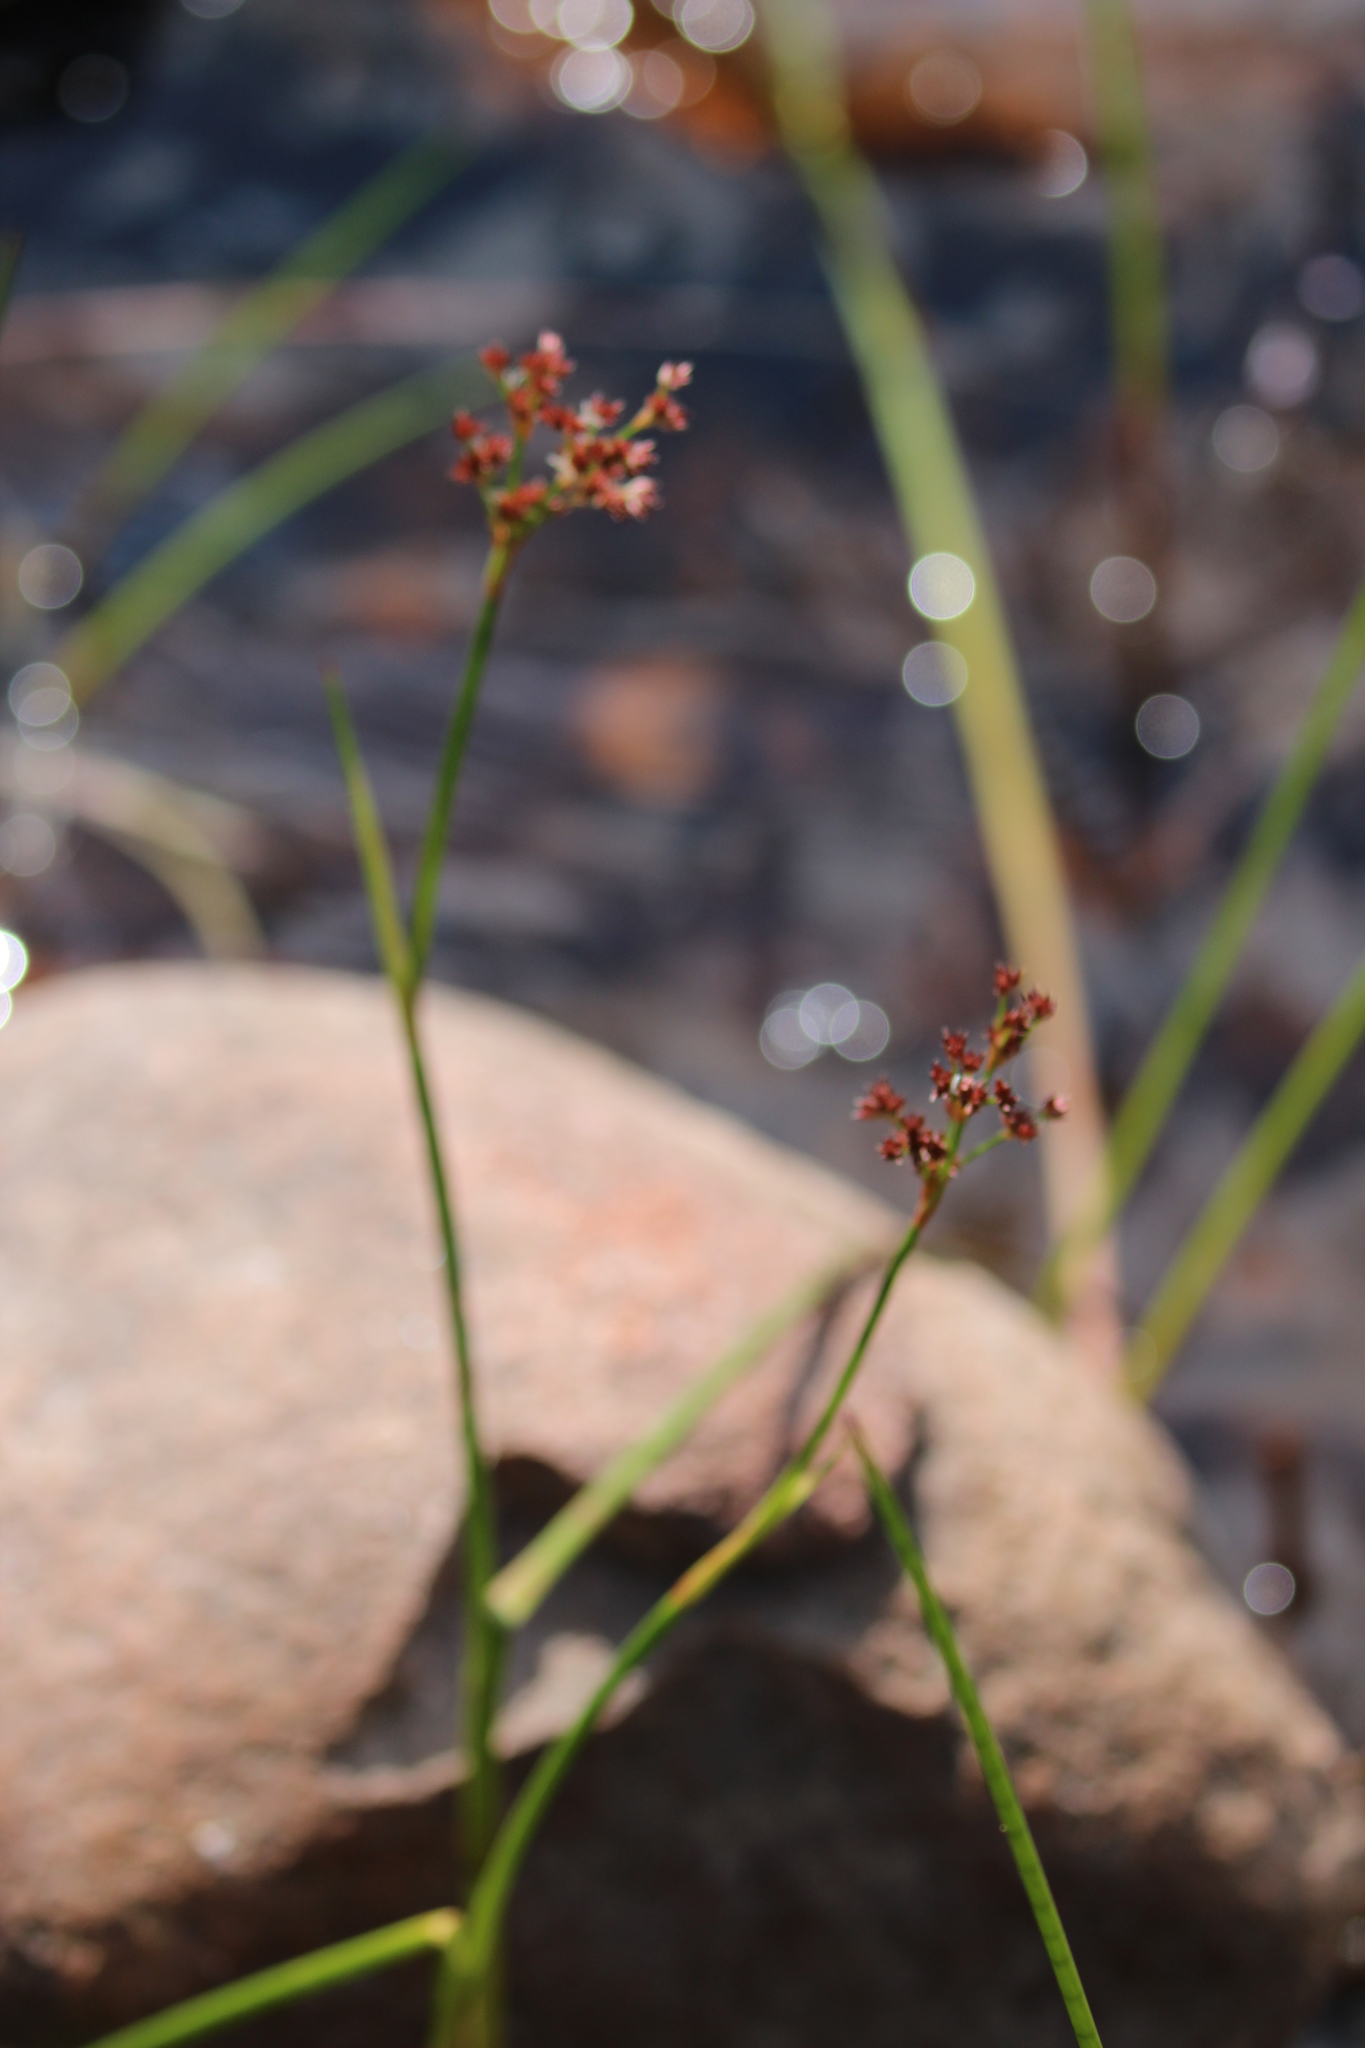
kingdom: Plantae
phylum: Tracheophyta
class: Liliopsida
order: Poales
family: Juncaceae
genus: Juncus
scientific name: Juncus militaris
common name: Bayonet rush
